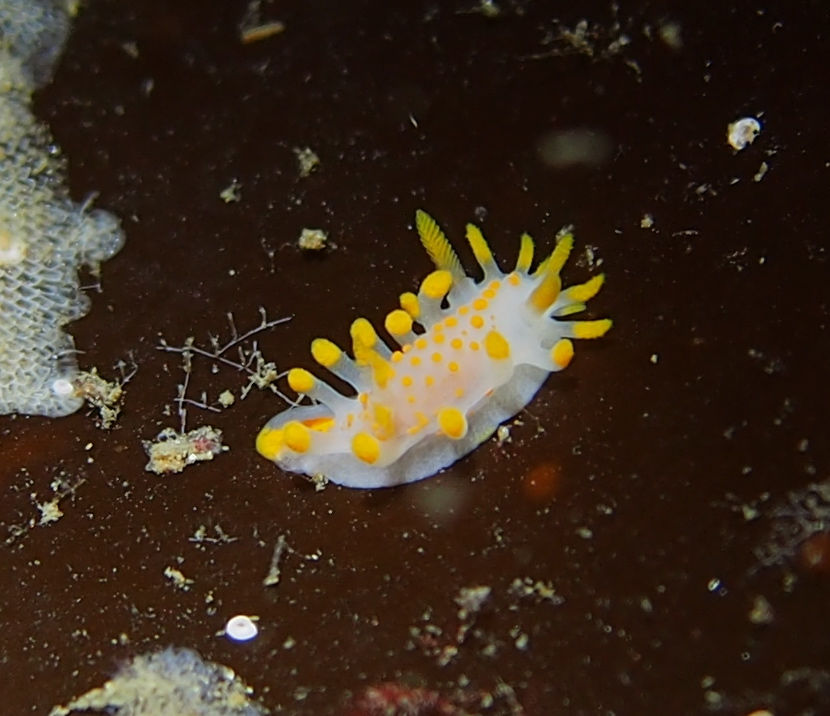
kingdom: Animalia
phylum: Mollusca
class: Gastropoda
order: Nudibranchia
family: Polyceridae
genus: Limacia
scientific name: Limacia clavigera
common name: Orange-clubbed sea slug
